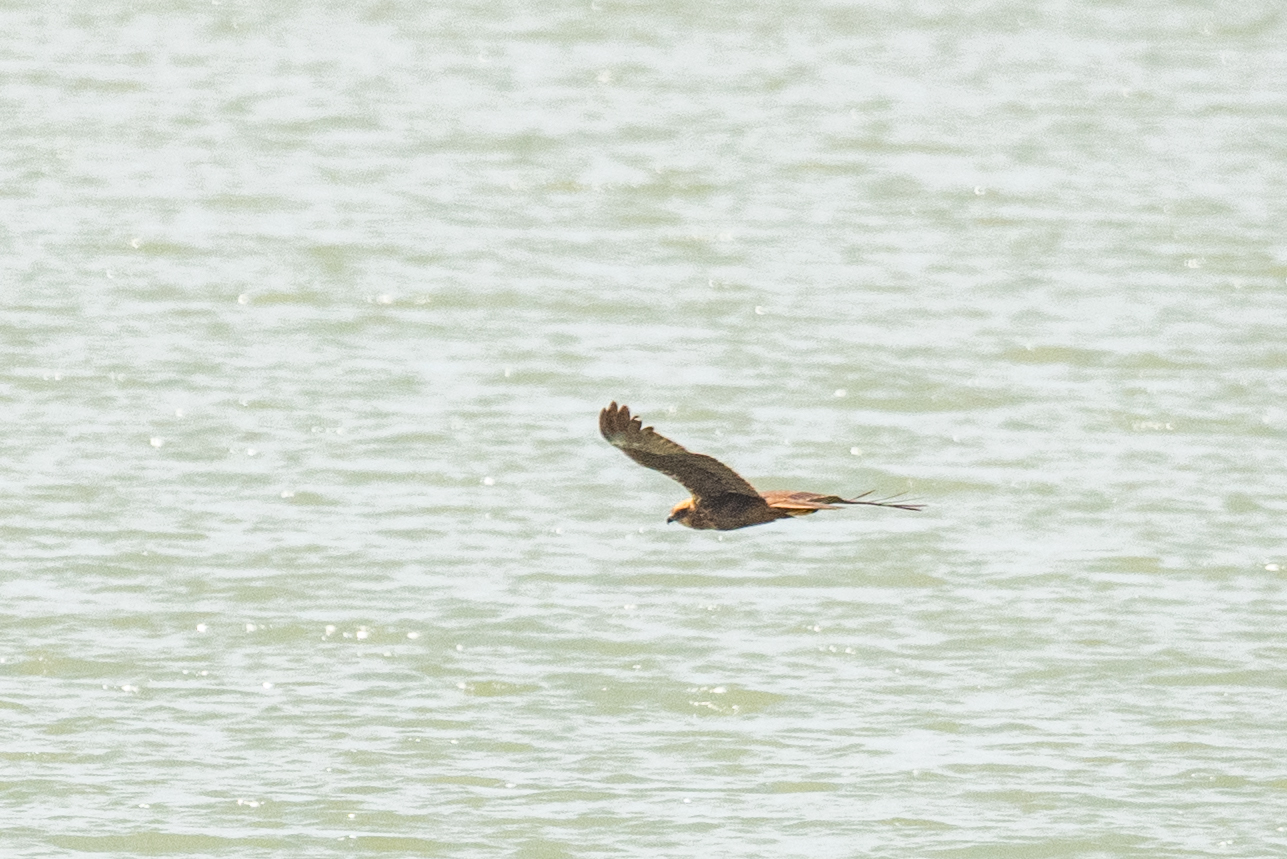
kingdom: Animalia
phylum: Chordata
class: Aves
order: Accipitriformes
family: Accipitridae
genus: Circus
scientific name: Circus aeruginosus
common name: Western marsh harrier
